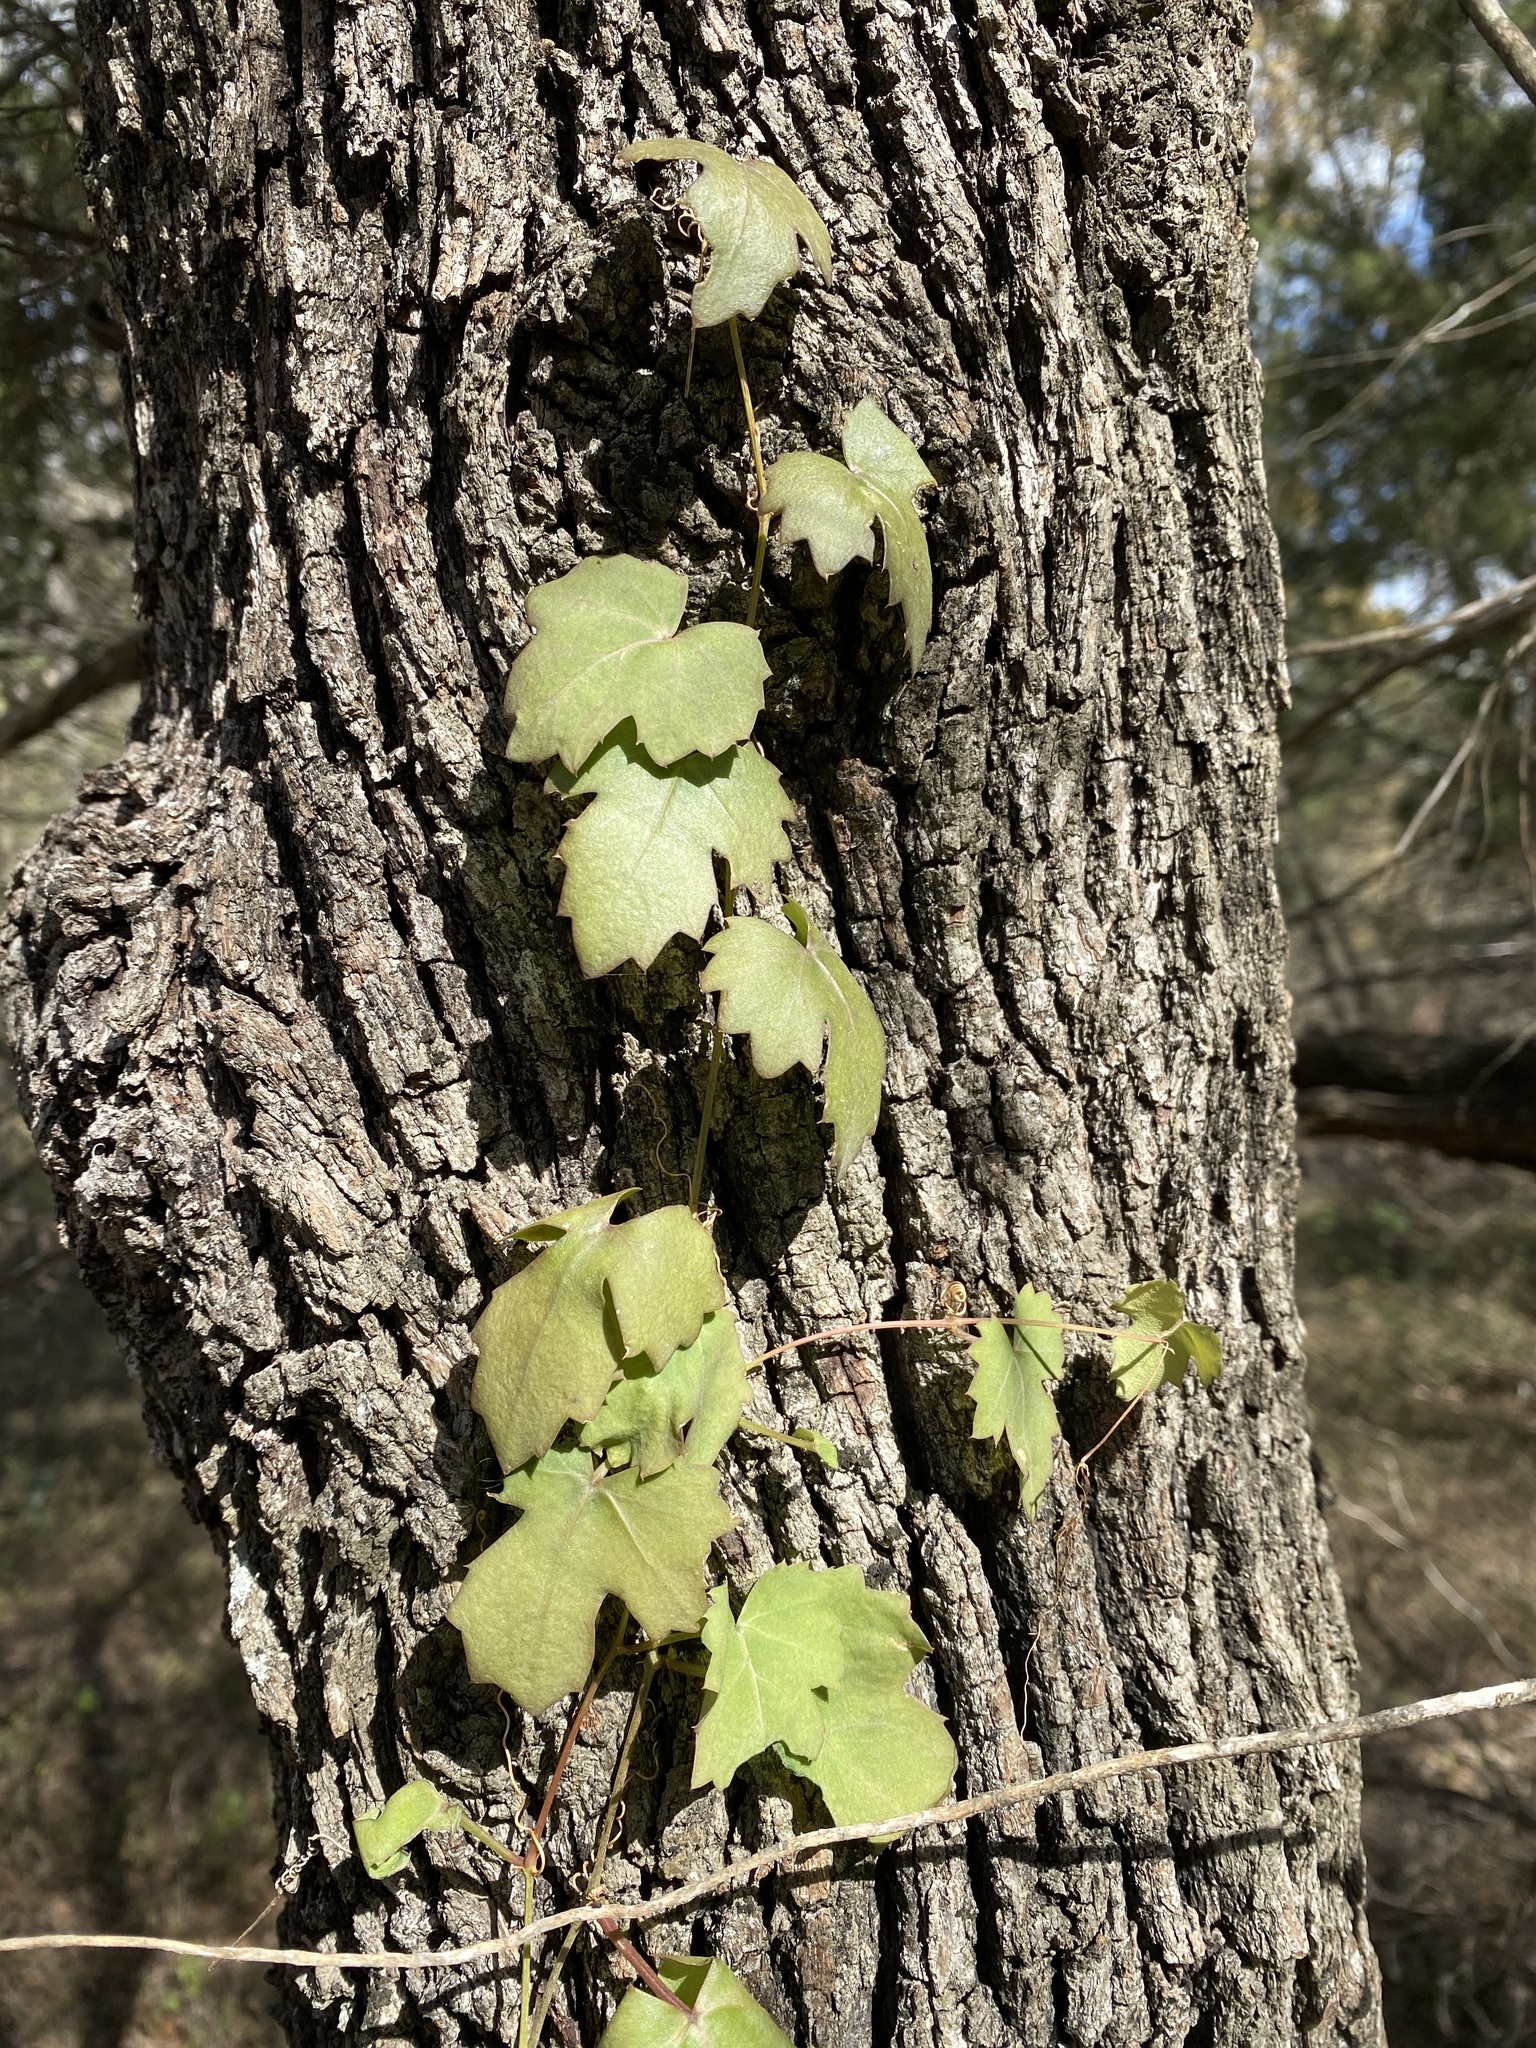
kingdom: Plantae
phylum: Tracheophyta
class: Magnoliopsida
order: Vitales
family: Vitaceae
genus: Cissus
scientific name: Cissus trifoliata
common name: Vine-sorrel
